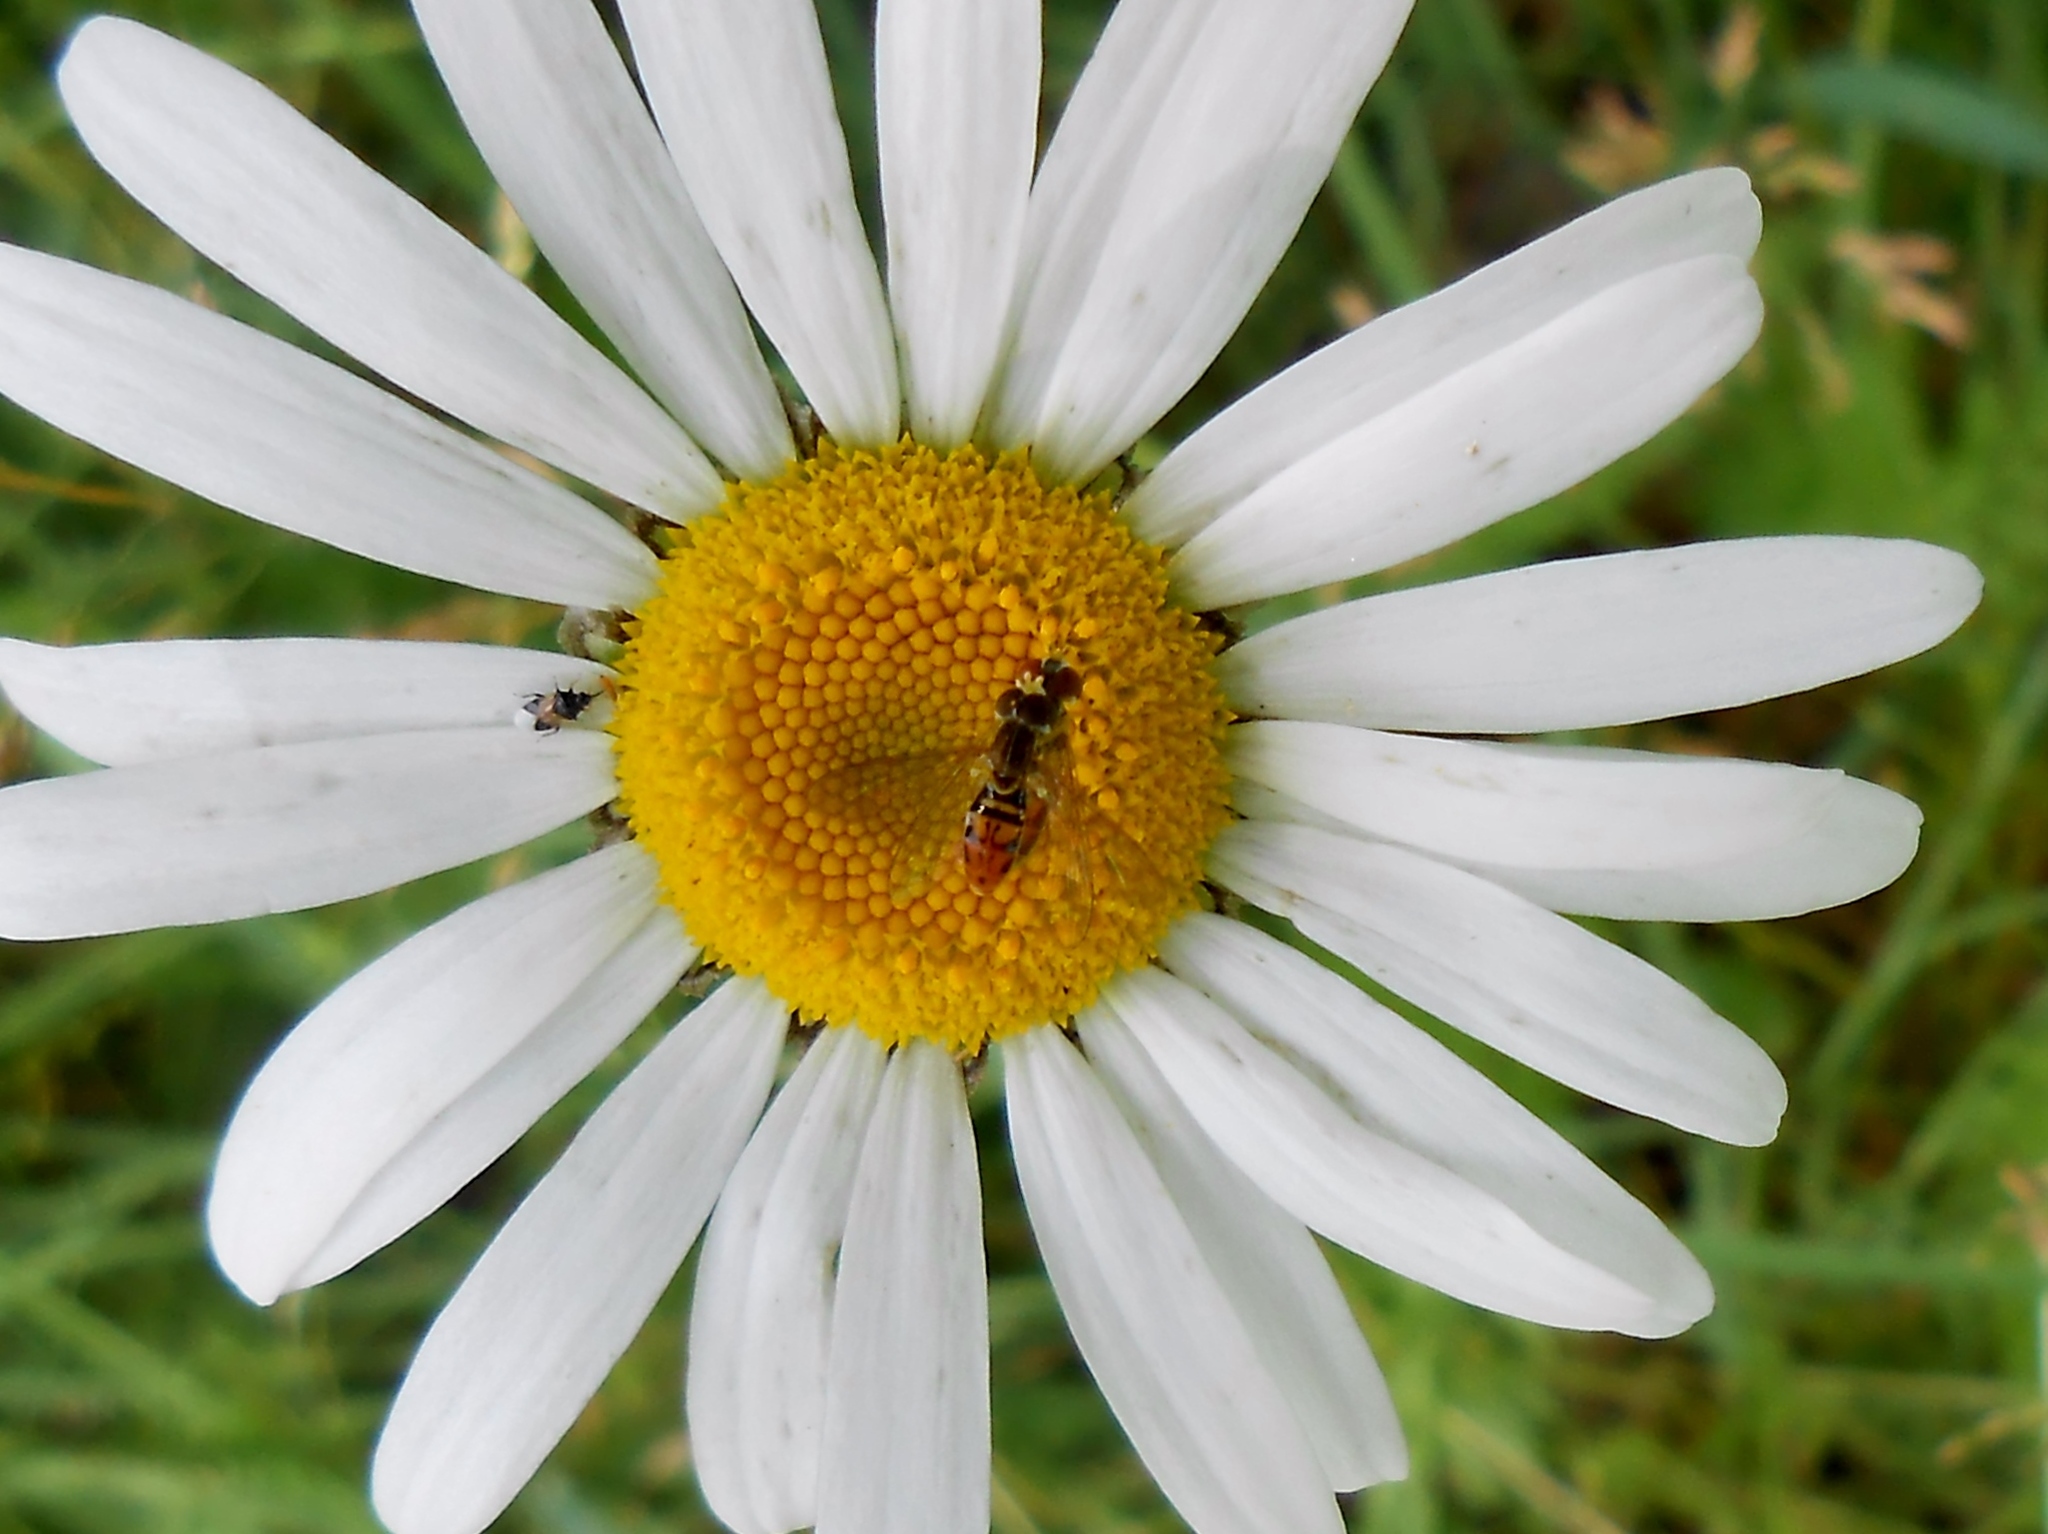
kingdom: Animalia
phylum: Arthropoda
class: Insecta
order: Diptera
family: Syrphidae
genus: Toxomerus
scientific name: Toxomerus marginatus
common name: Syrphid fly
